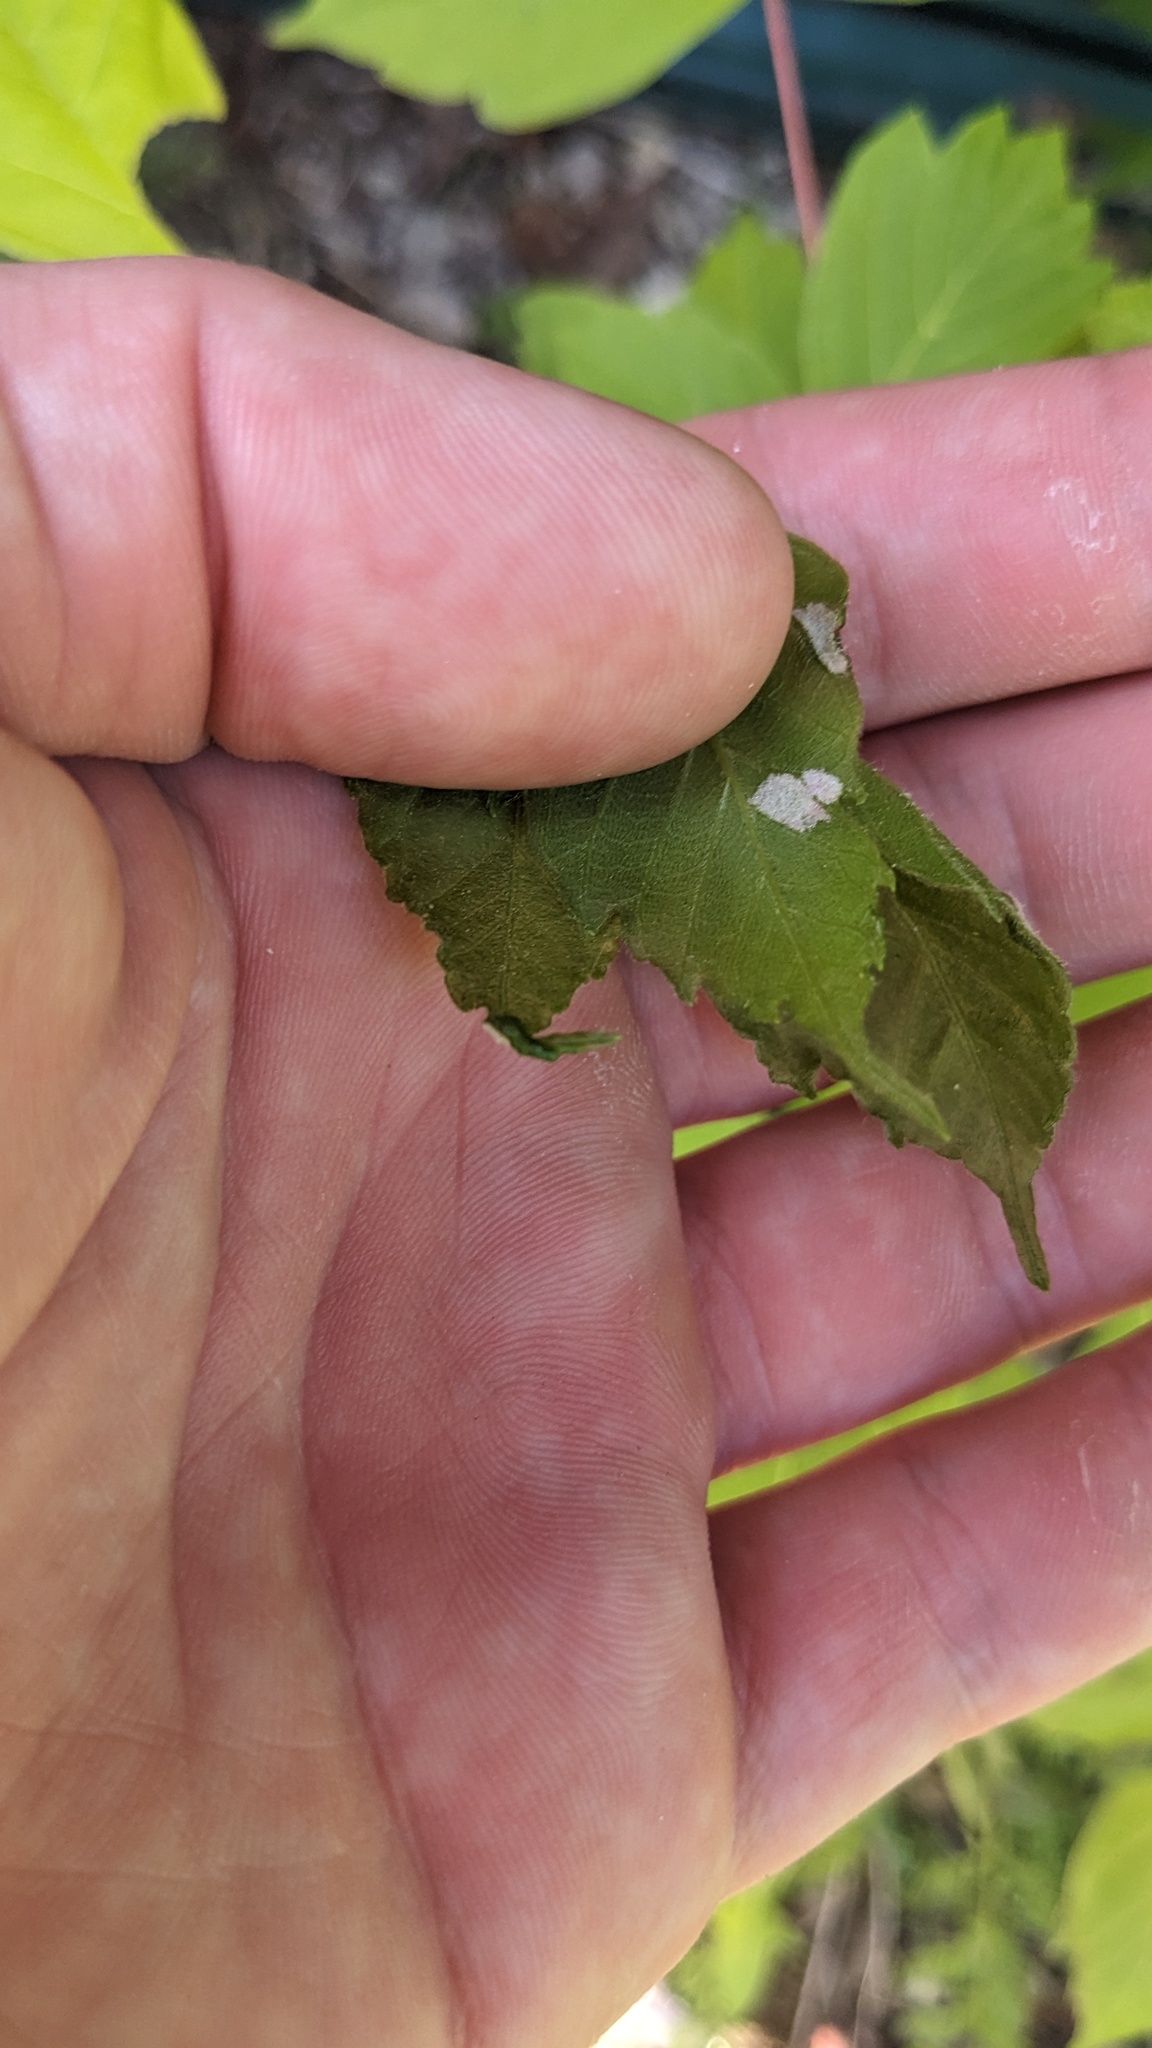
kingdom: Animalia
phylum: Arthropoda
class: Arachnida
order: Trombidiformes
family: Eriophyidae
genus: Aceria
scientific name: Aceria
